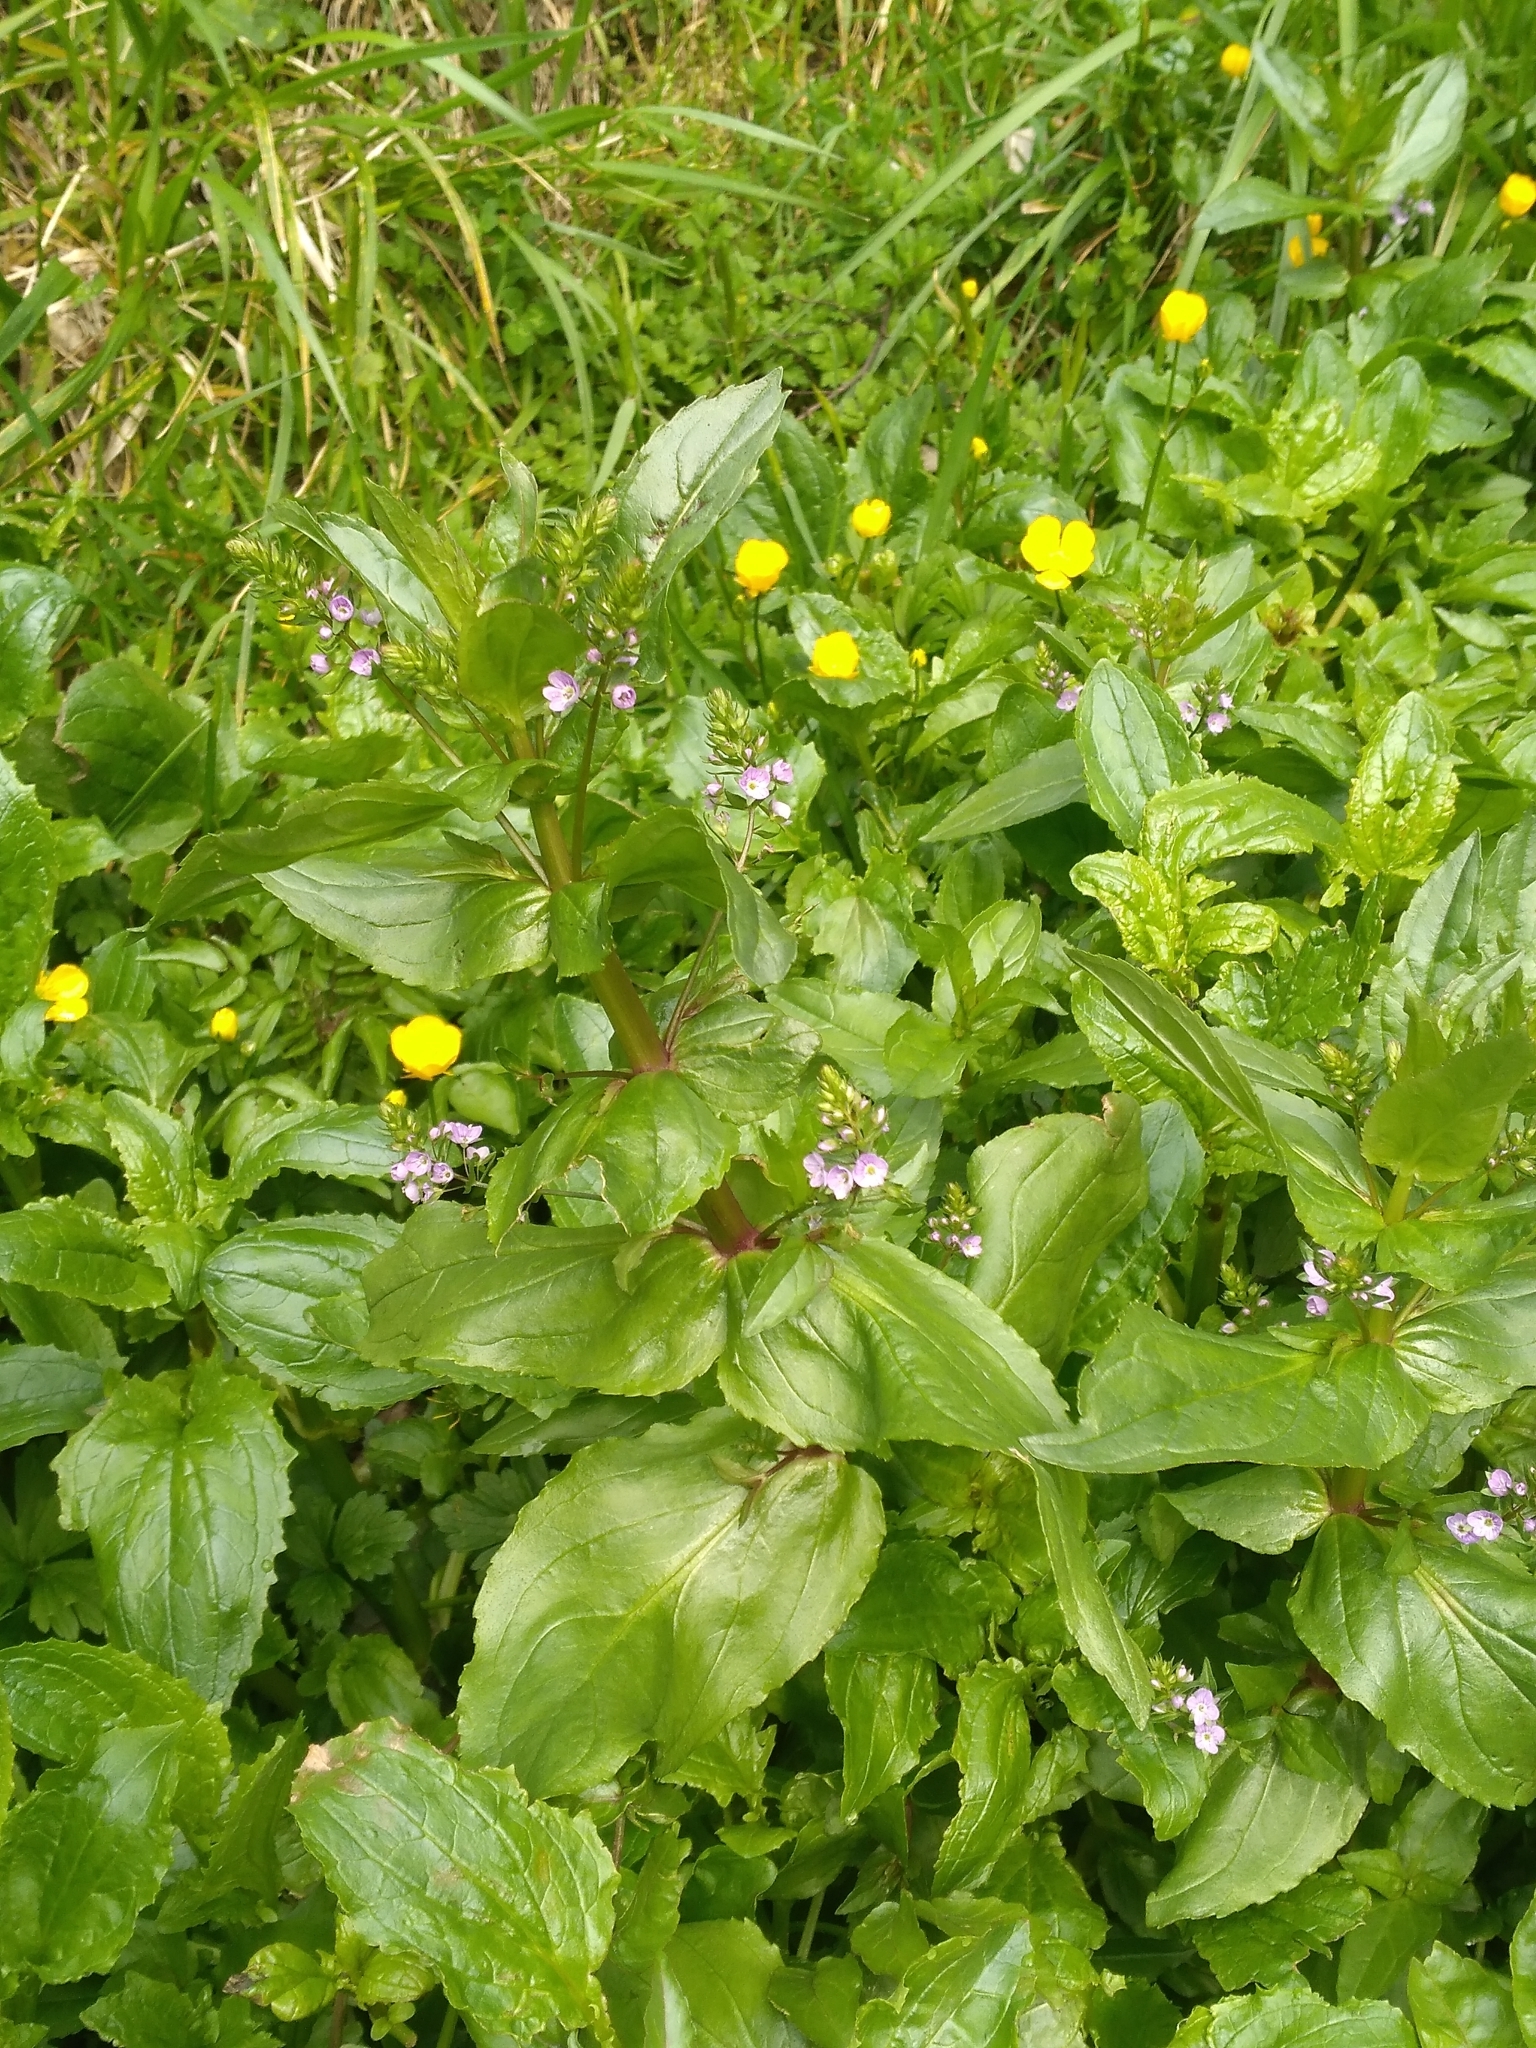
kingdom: Plantae
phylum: Tracheophyta
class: Magnoliopsida
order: Lamiales
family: Plantaginaceae
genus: Veronica
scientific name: Veronica anagallis-aquatica
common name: Water speedwell
